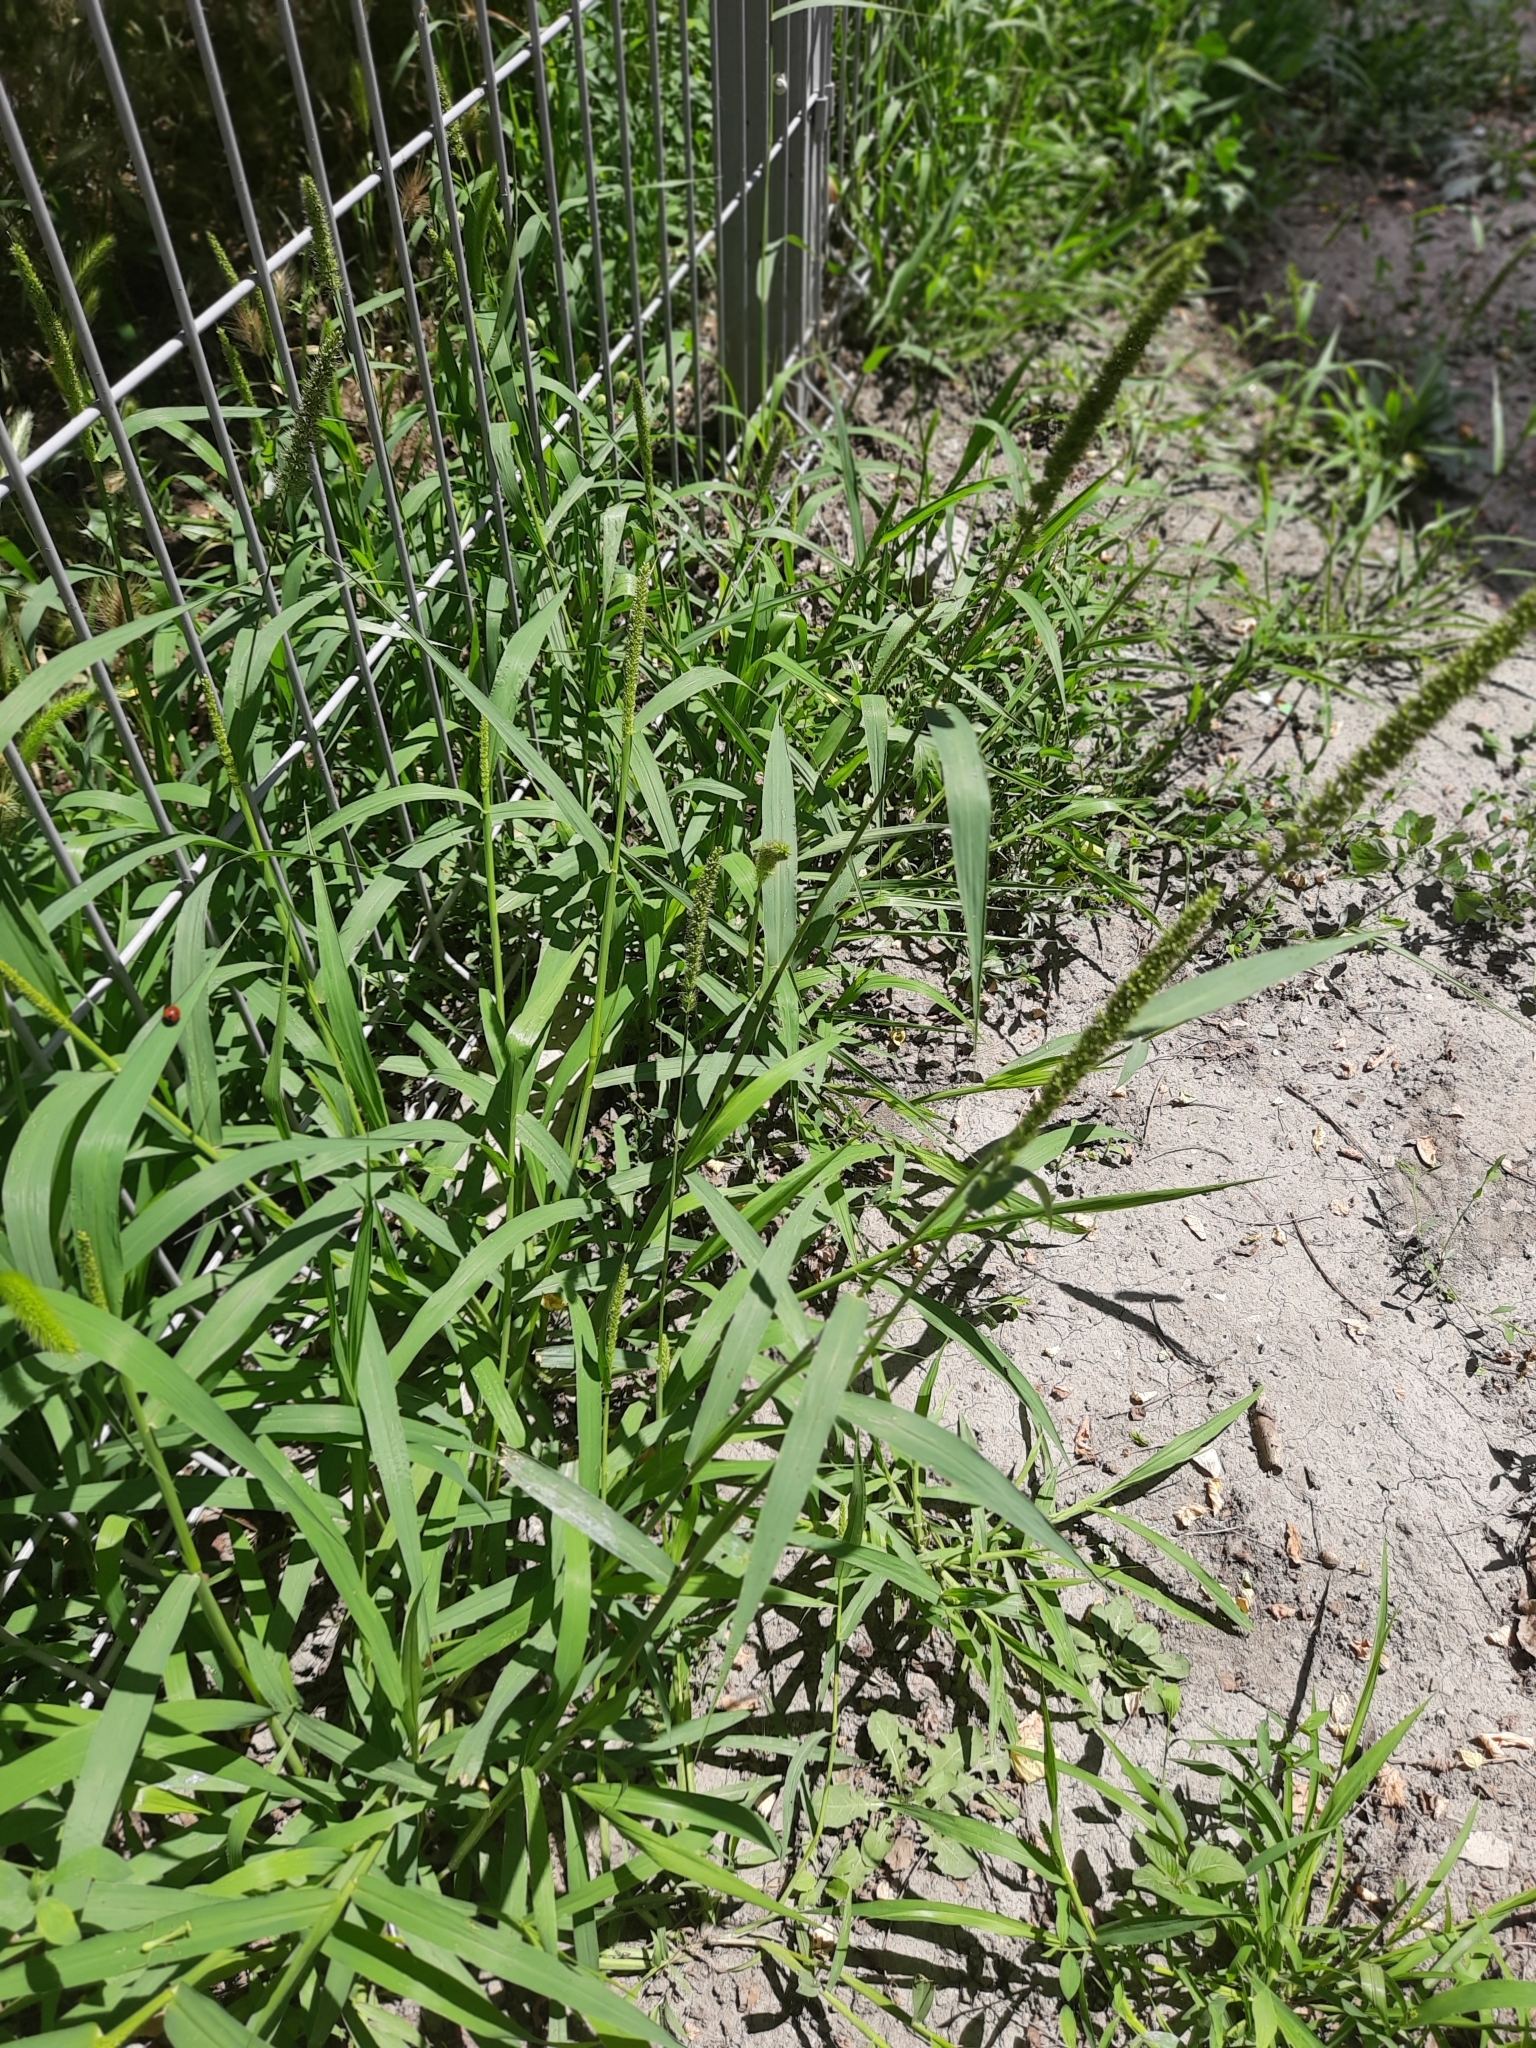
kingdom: Plantae
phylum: Tracheophyta
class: Liliopsida
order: Poales
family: Poaceae
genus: Setaria
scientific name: Setaria verticillata
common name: Hooked bristlegrass
